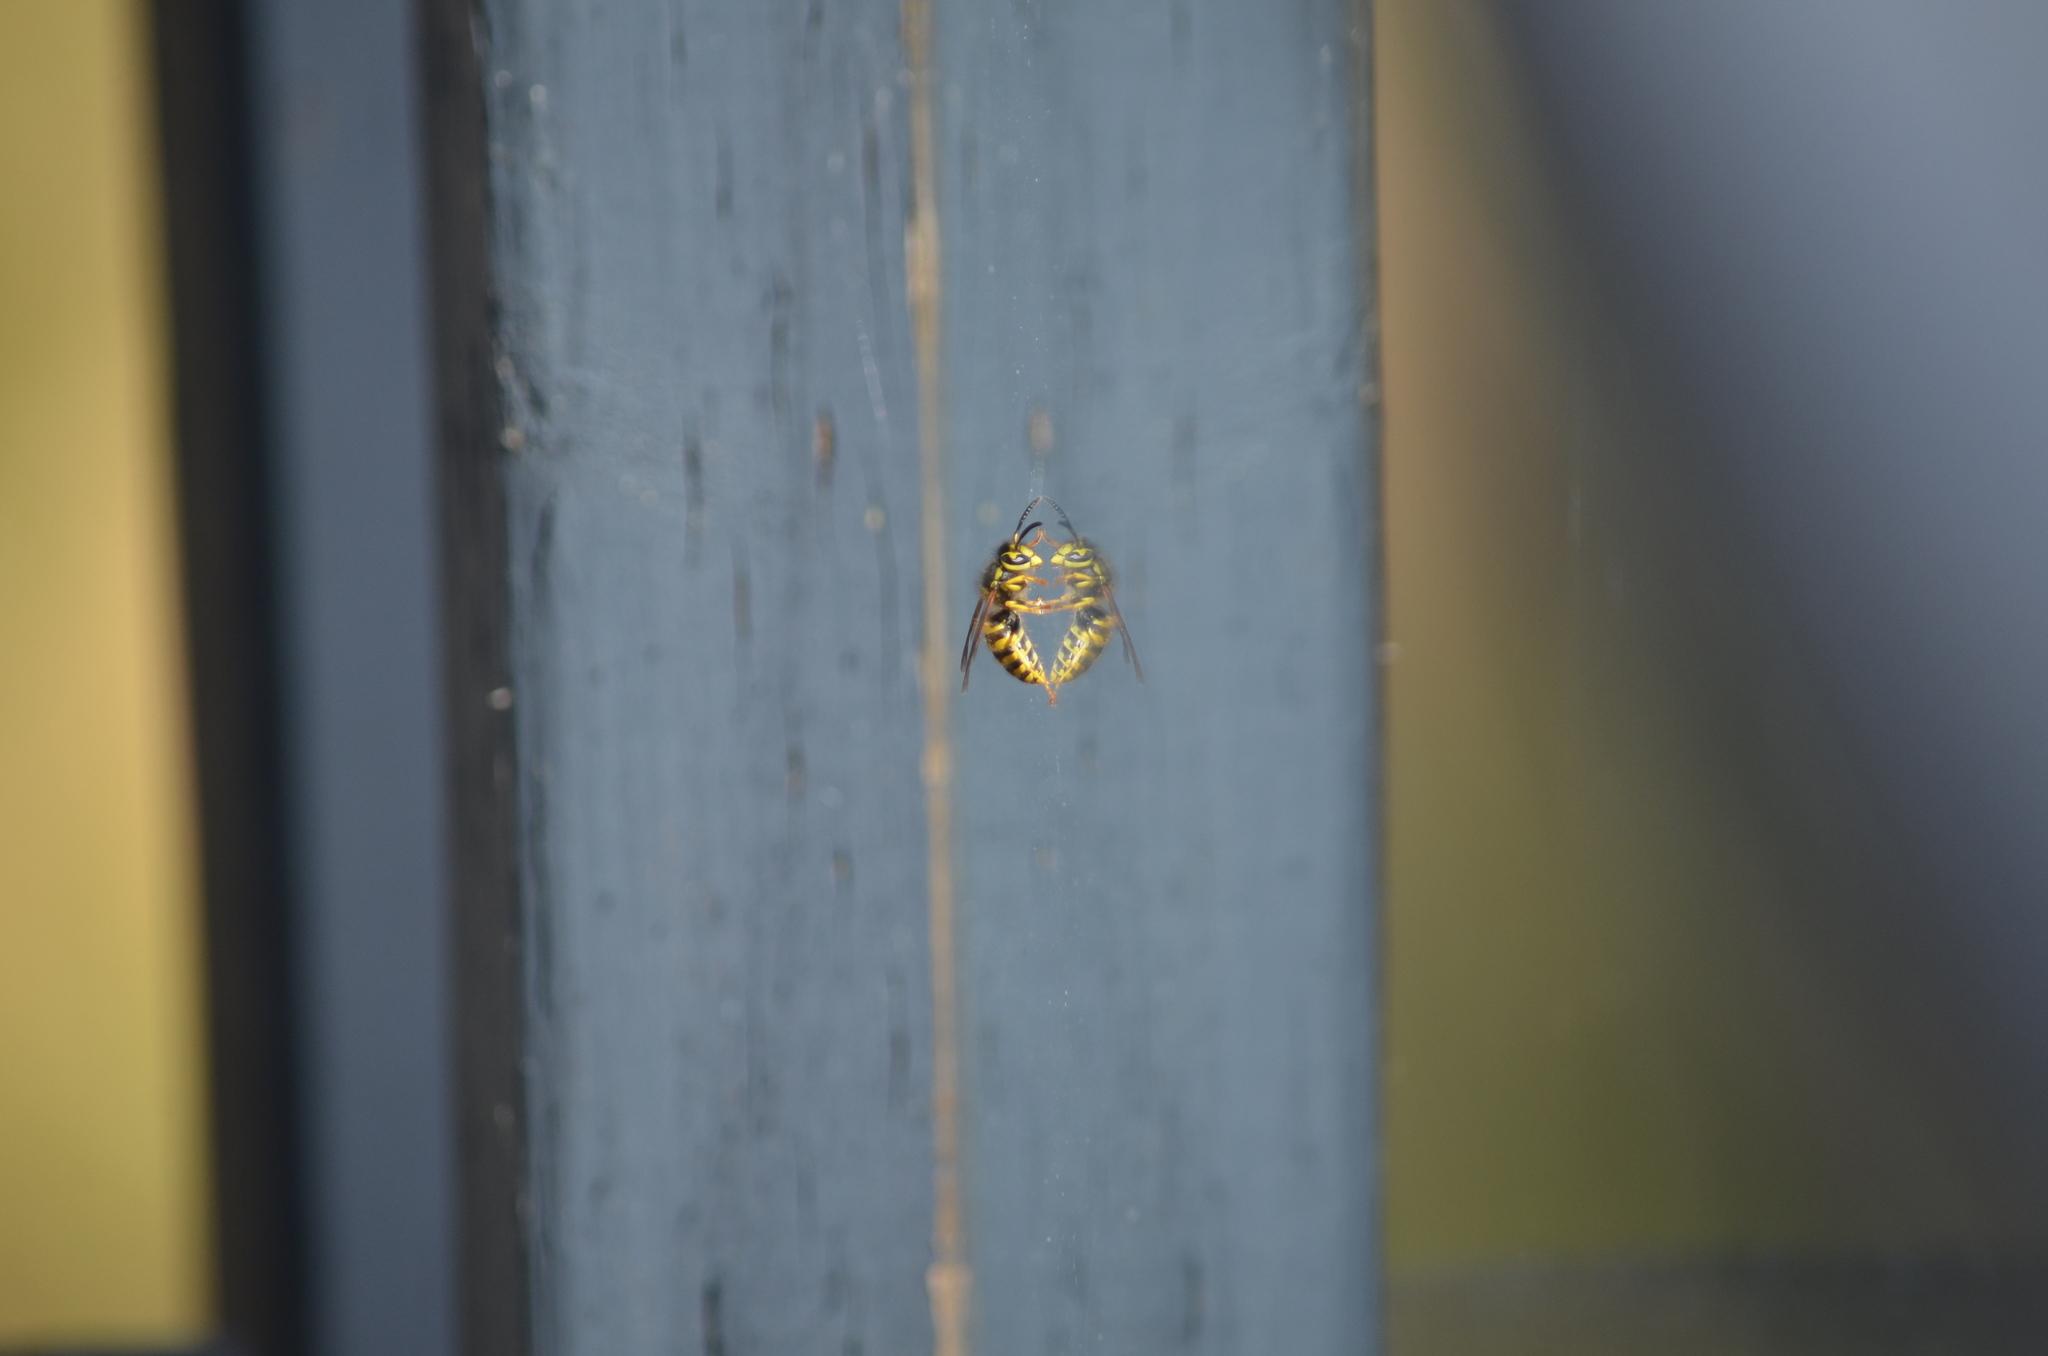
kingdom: Animalia
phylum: Arthropoda
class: Insecta
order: Hymenoptera
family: Vespidae
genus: Vespula
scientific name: Vespula pensylvanica
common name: Western yellowjacket
